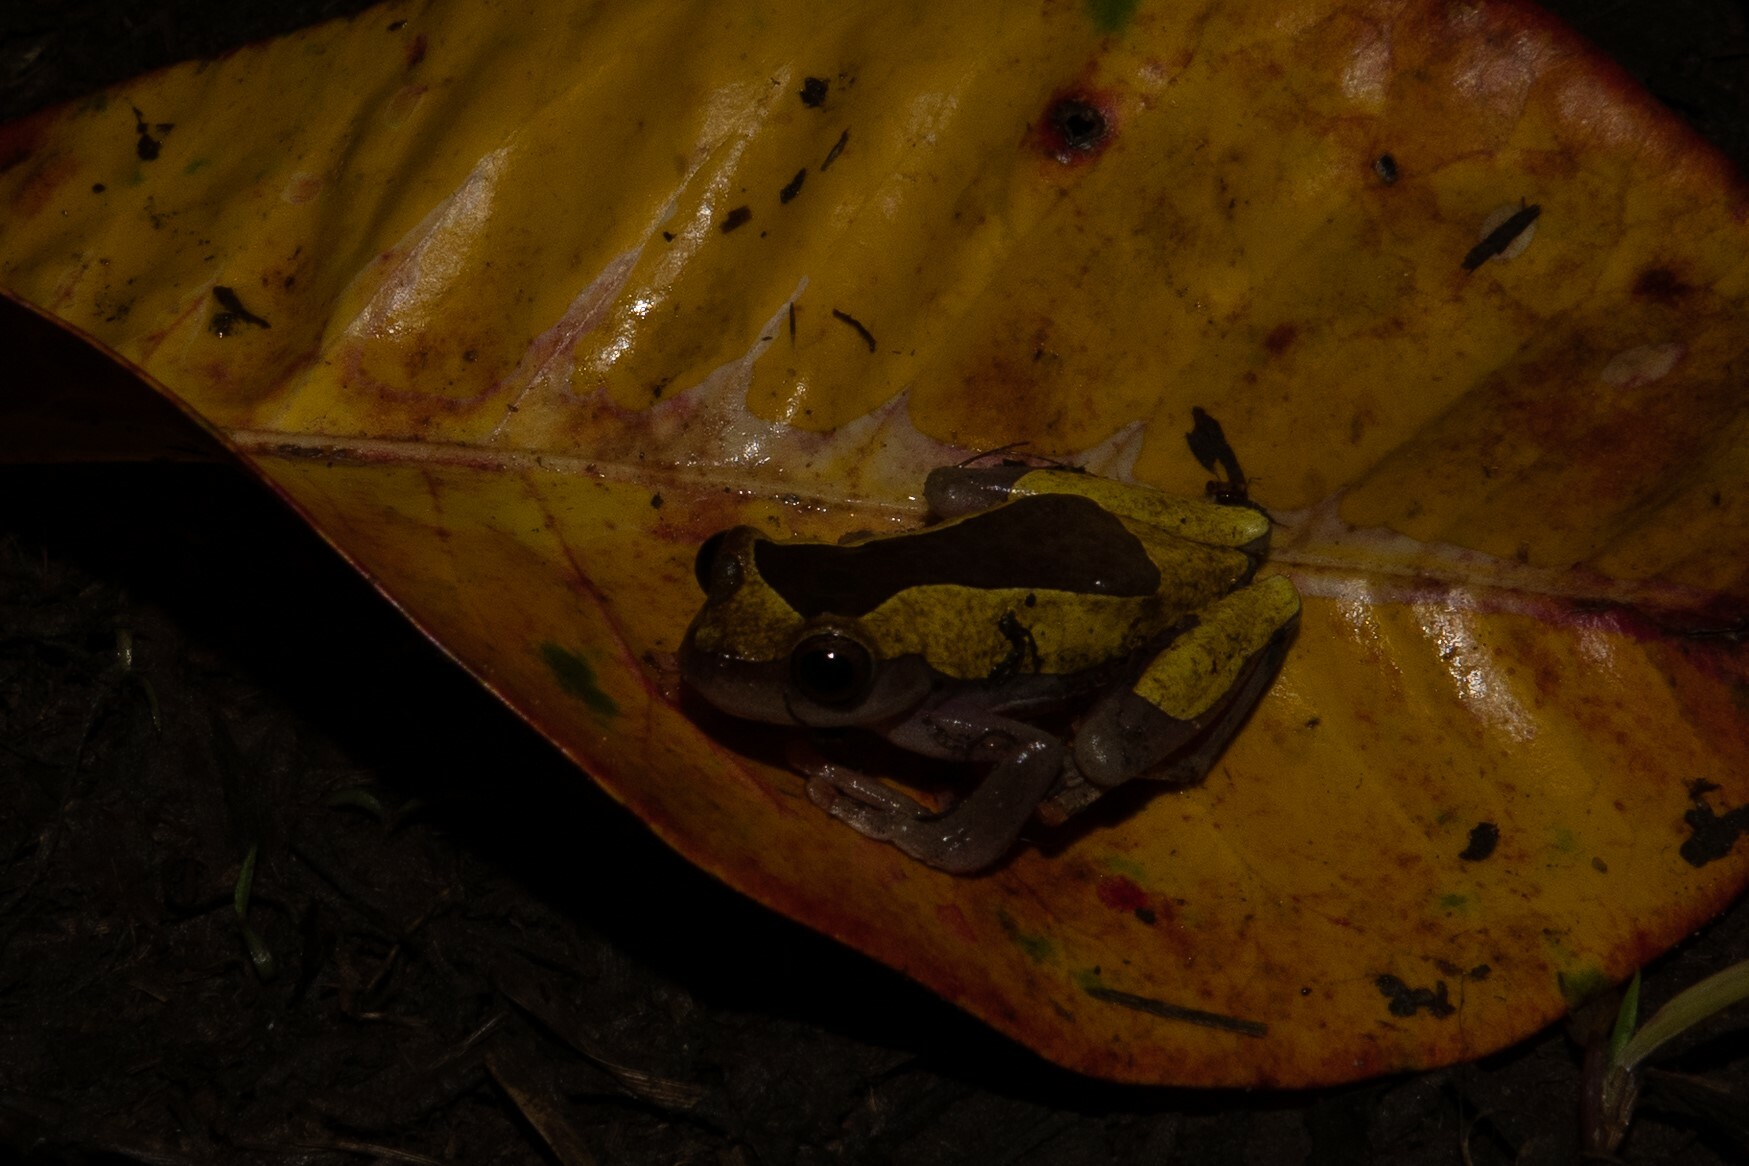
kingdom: Animalia
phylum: Chordata
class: Amphibia
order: Anura
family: Hylidae
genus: Dendropsophus
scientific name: Dendropsophus leucophyllatus
